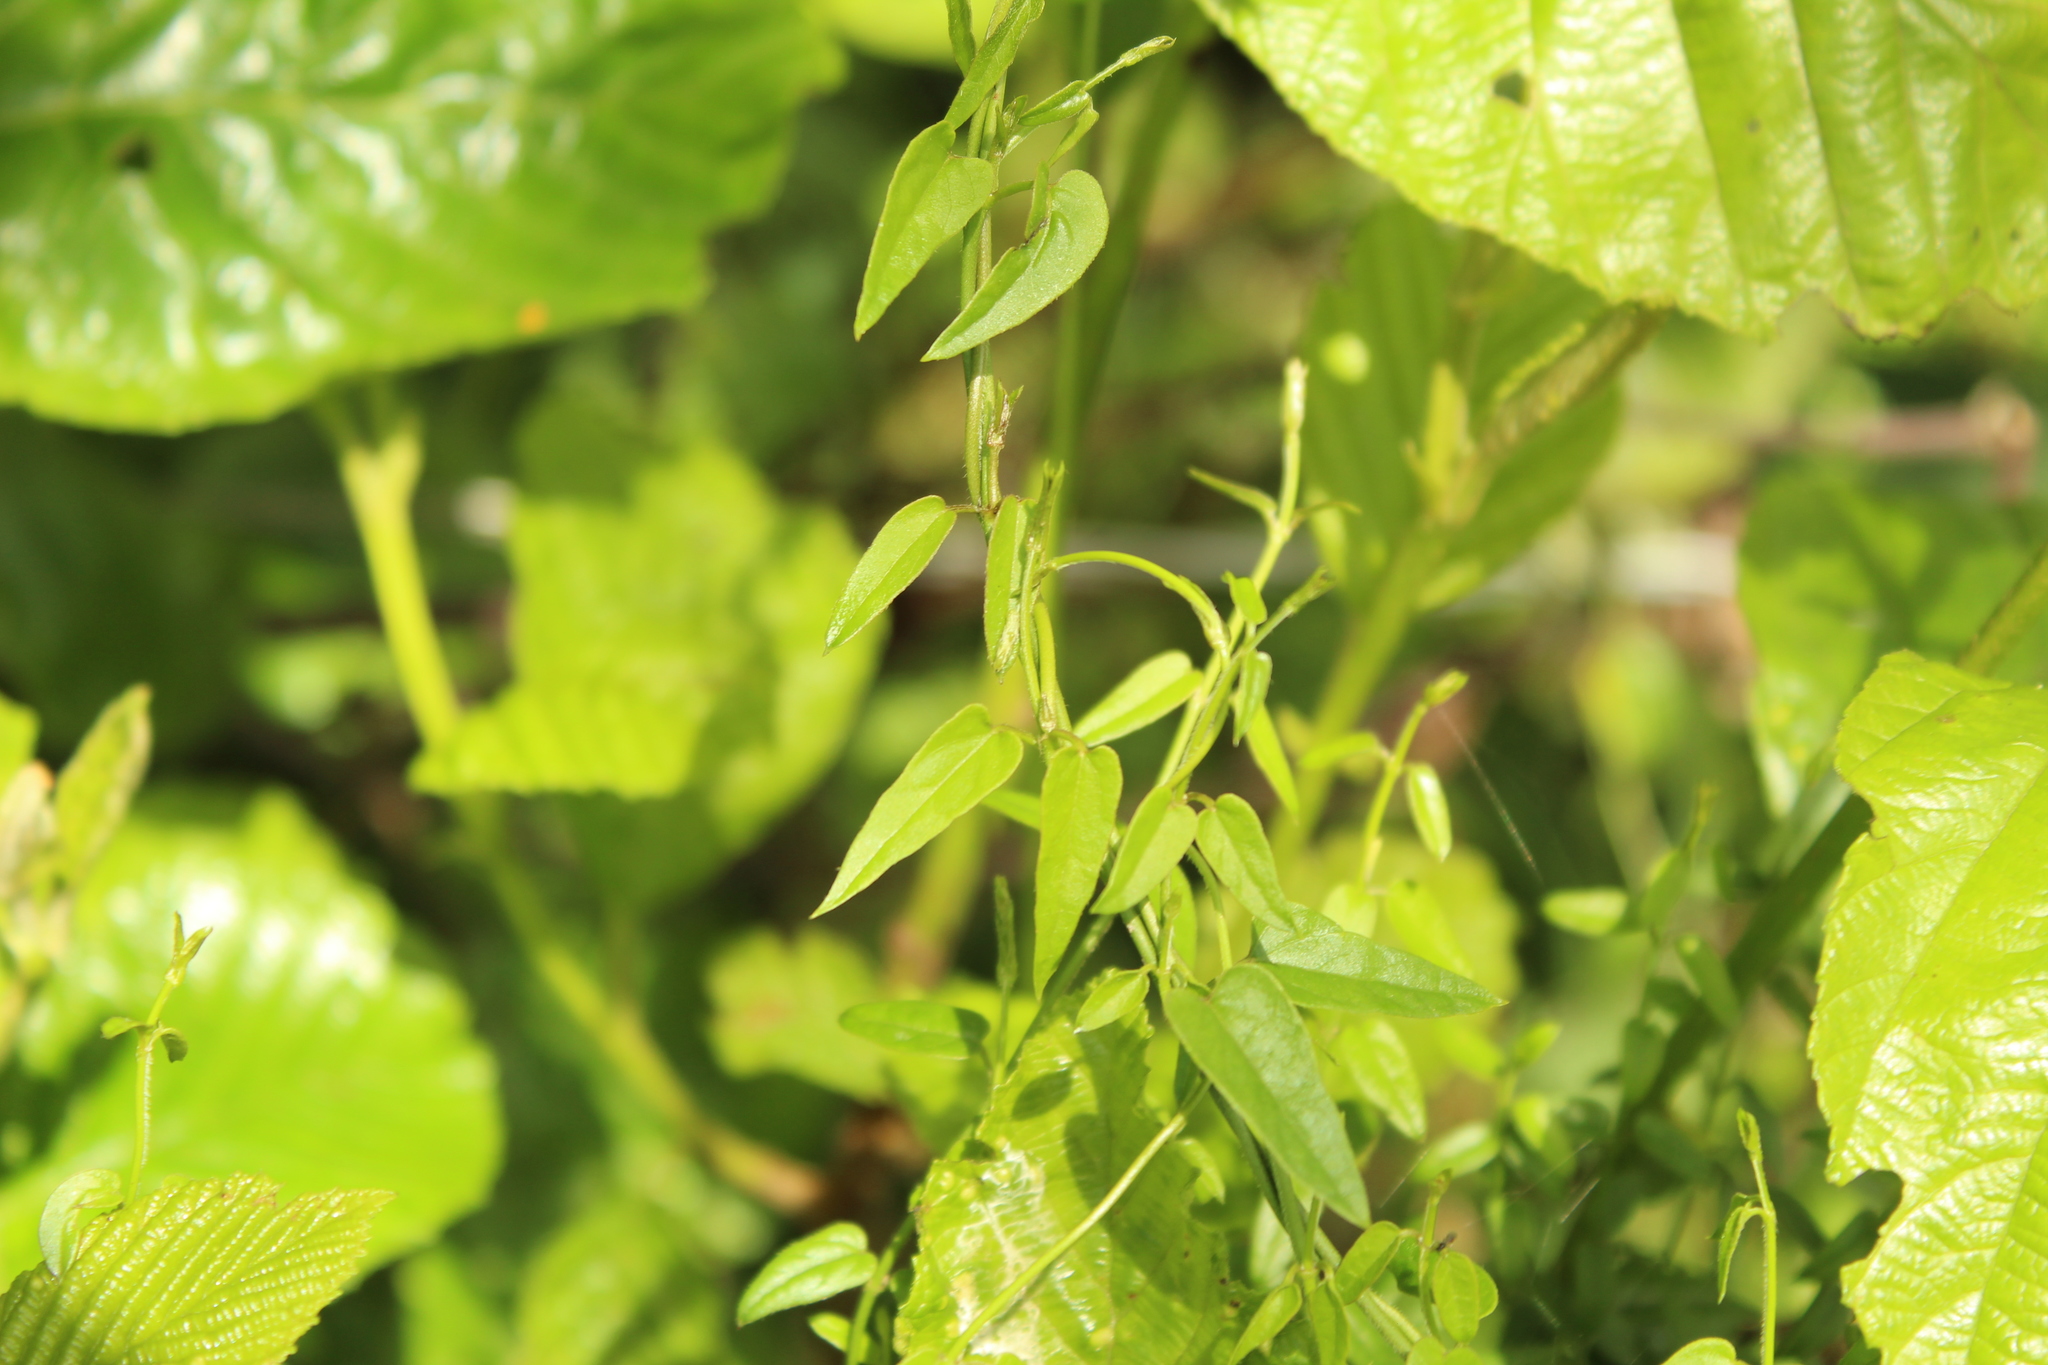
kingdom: Plantae
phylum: Tracheophyta
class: Magnoliopsida
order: Gentianales
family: Apocynaceae
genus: Scyphostelma
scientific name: Scyphostelma tenellum
